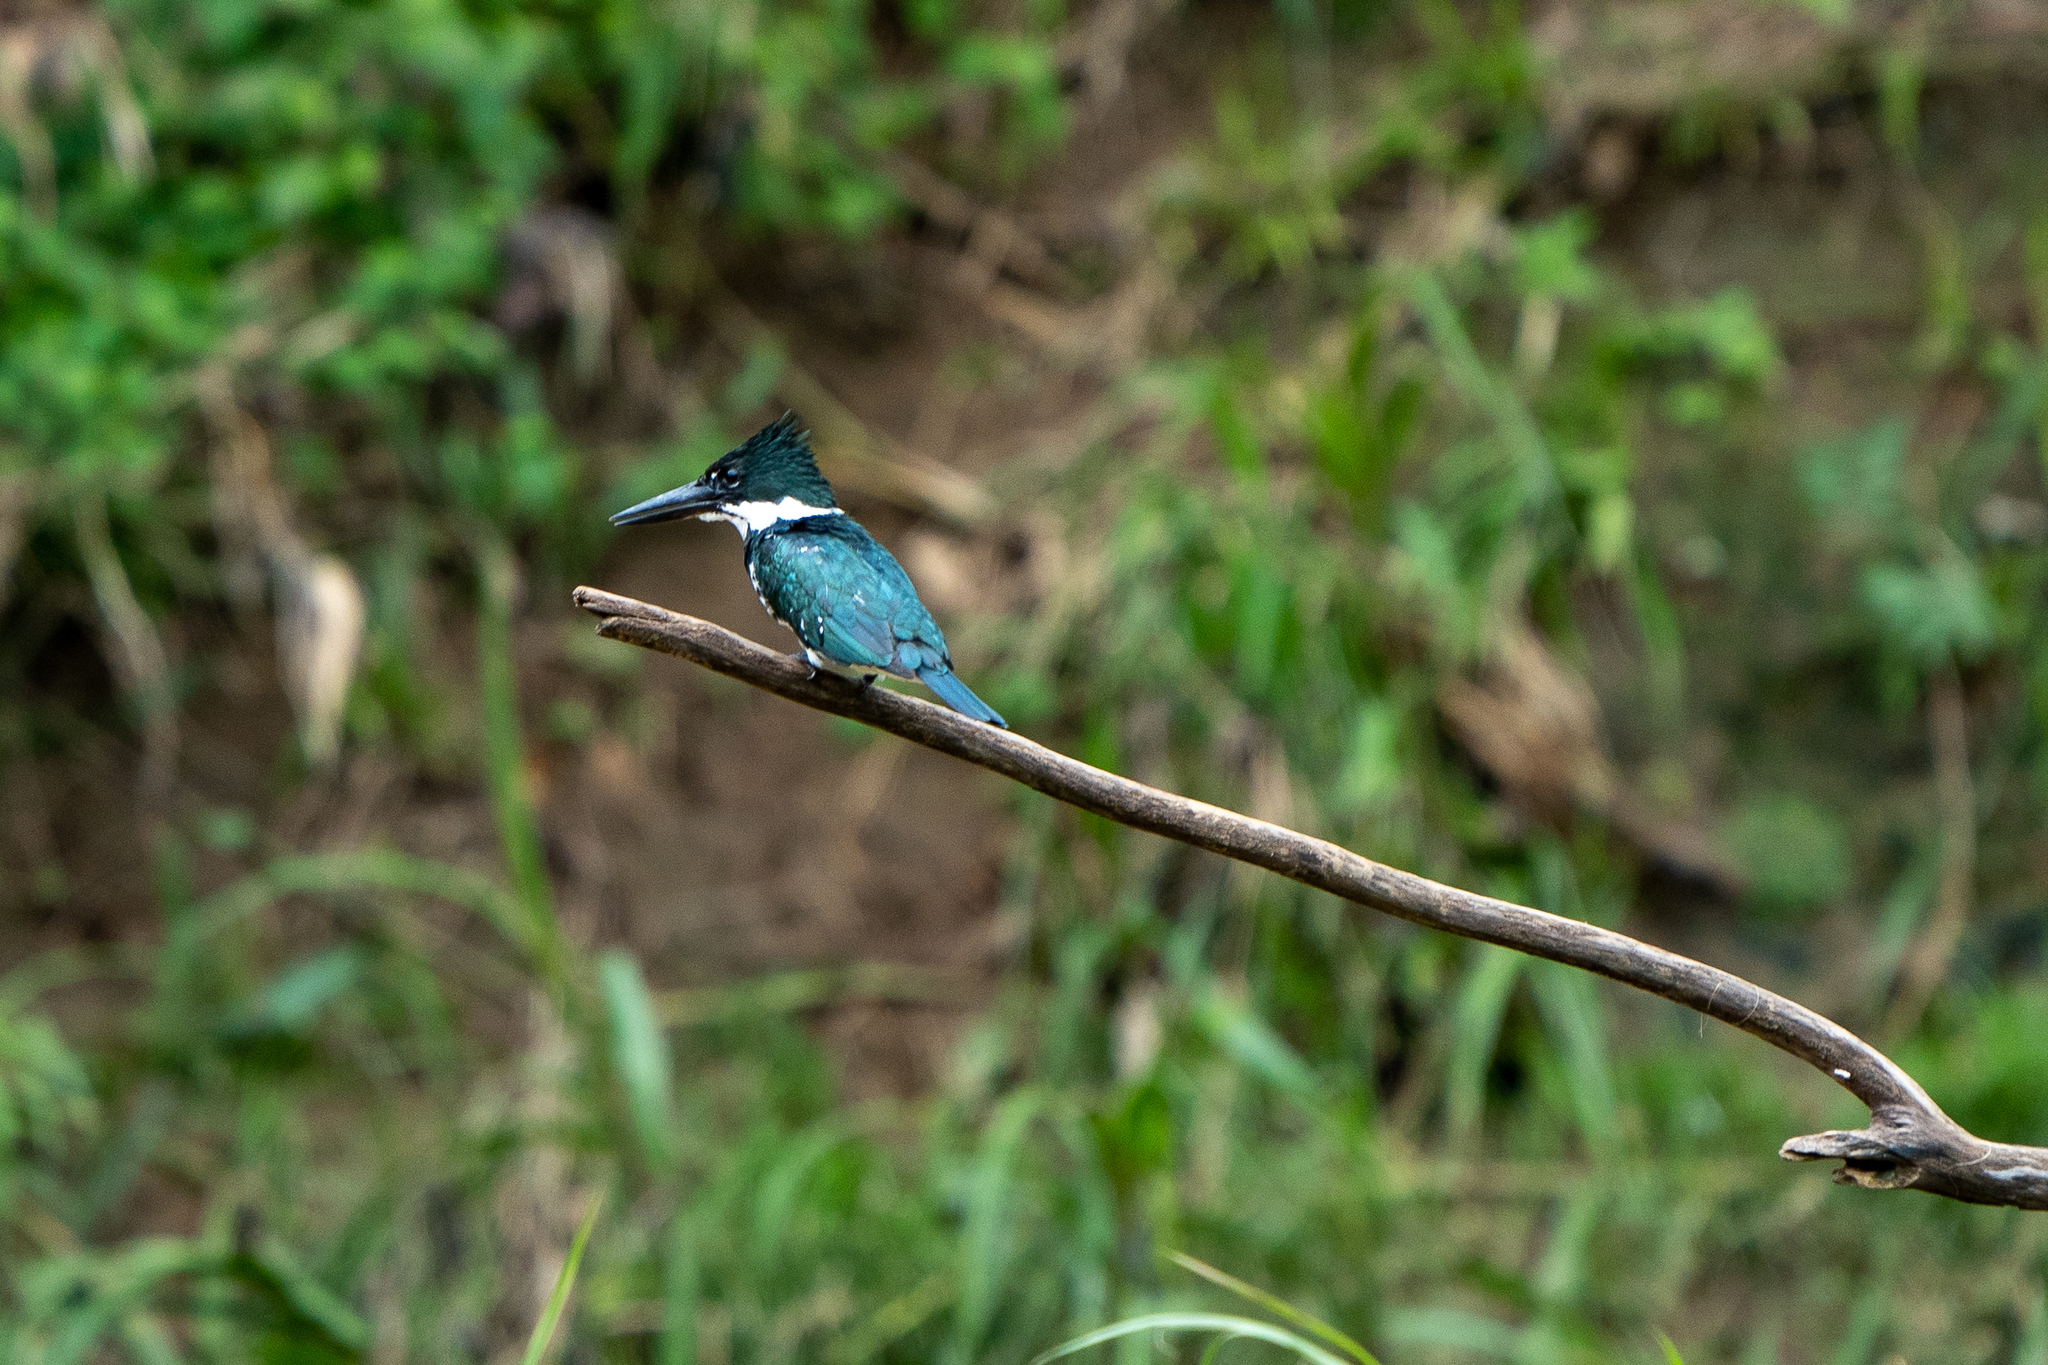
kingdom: Animalia
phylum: Chordata
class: Aves
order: Coraciiformes
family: Alcedinidae
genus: Chloroceryle
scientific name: Chloroceryle amazona
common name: Amazon kingfisher
